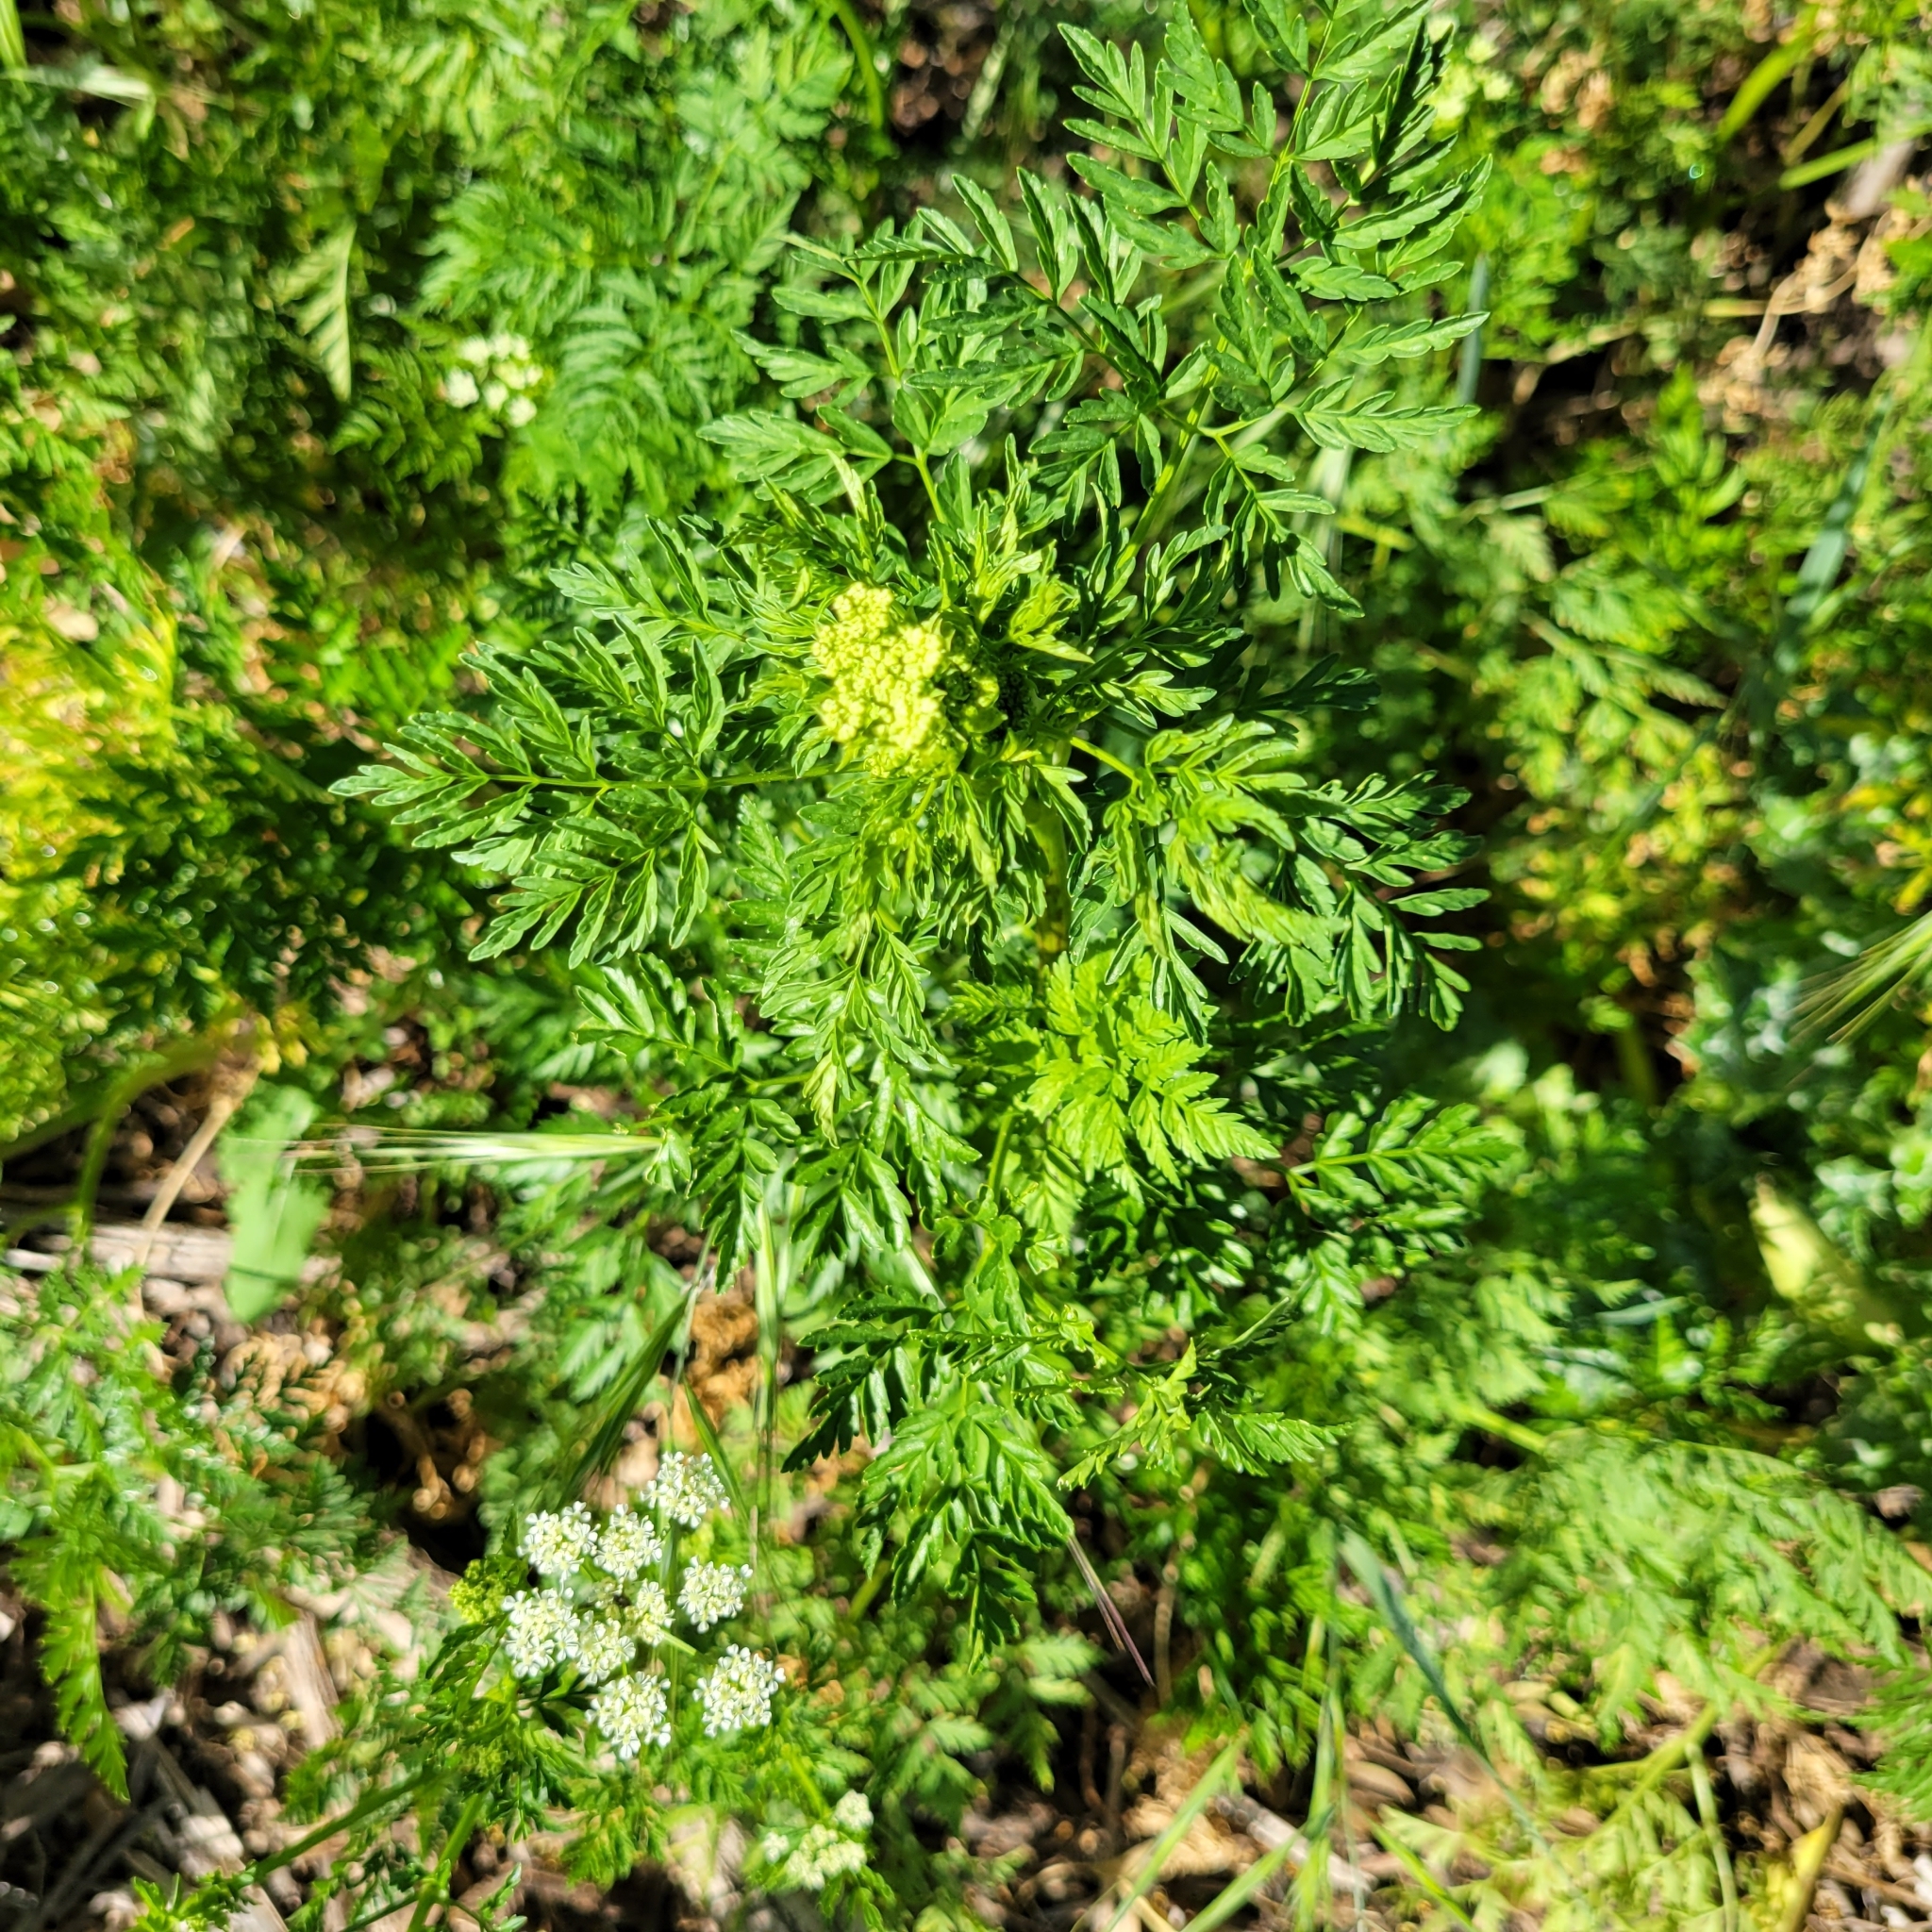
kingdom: Plantae
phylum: Tracheophyta
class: Magnoliopsida
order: Apiales
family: Apiaceae
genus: Conium
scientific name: Conium maculatum
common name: Hemlock
